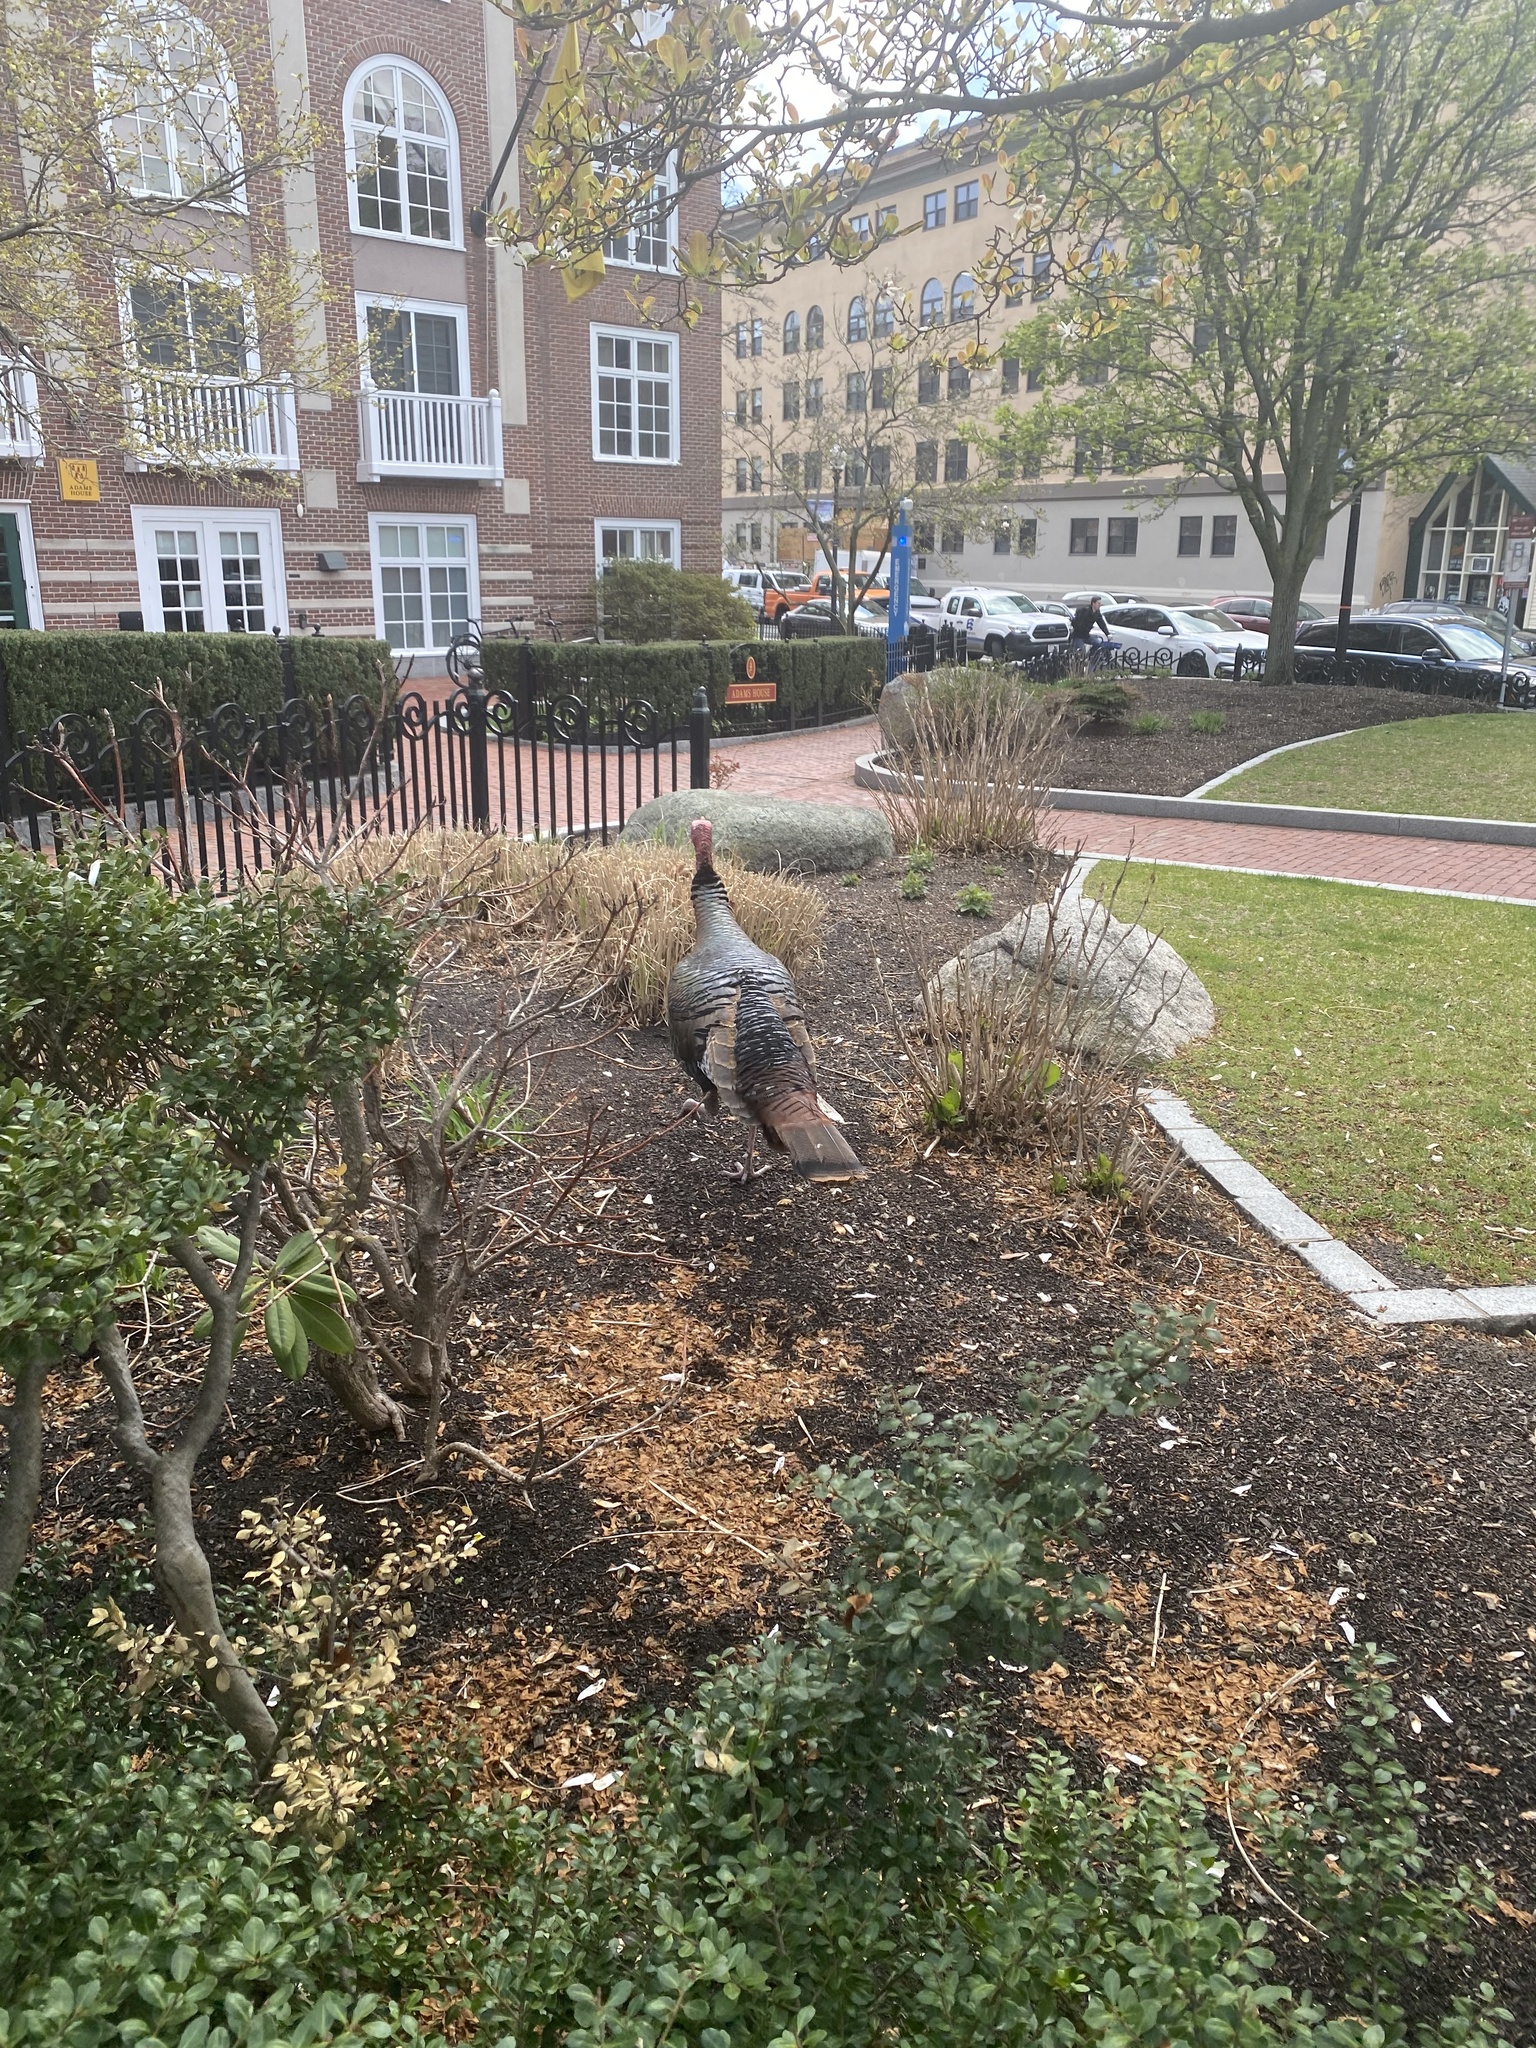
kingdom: Animalia
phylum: Chordata
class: Aves
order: Galliformes
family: Phasianidae
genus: Meleagris
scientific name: Meleagris gallopavo
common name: Wild turkey
